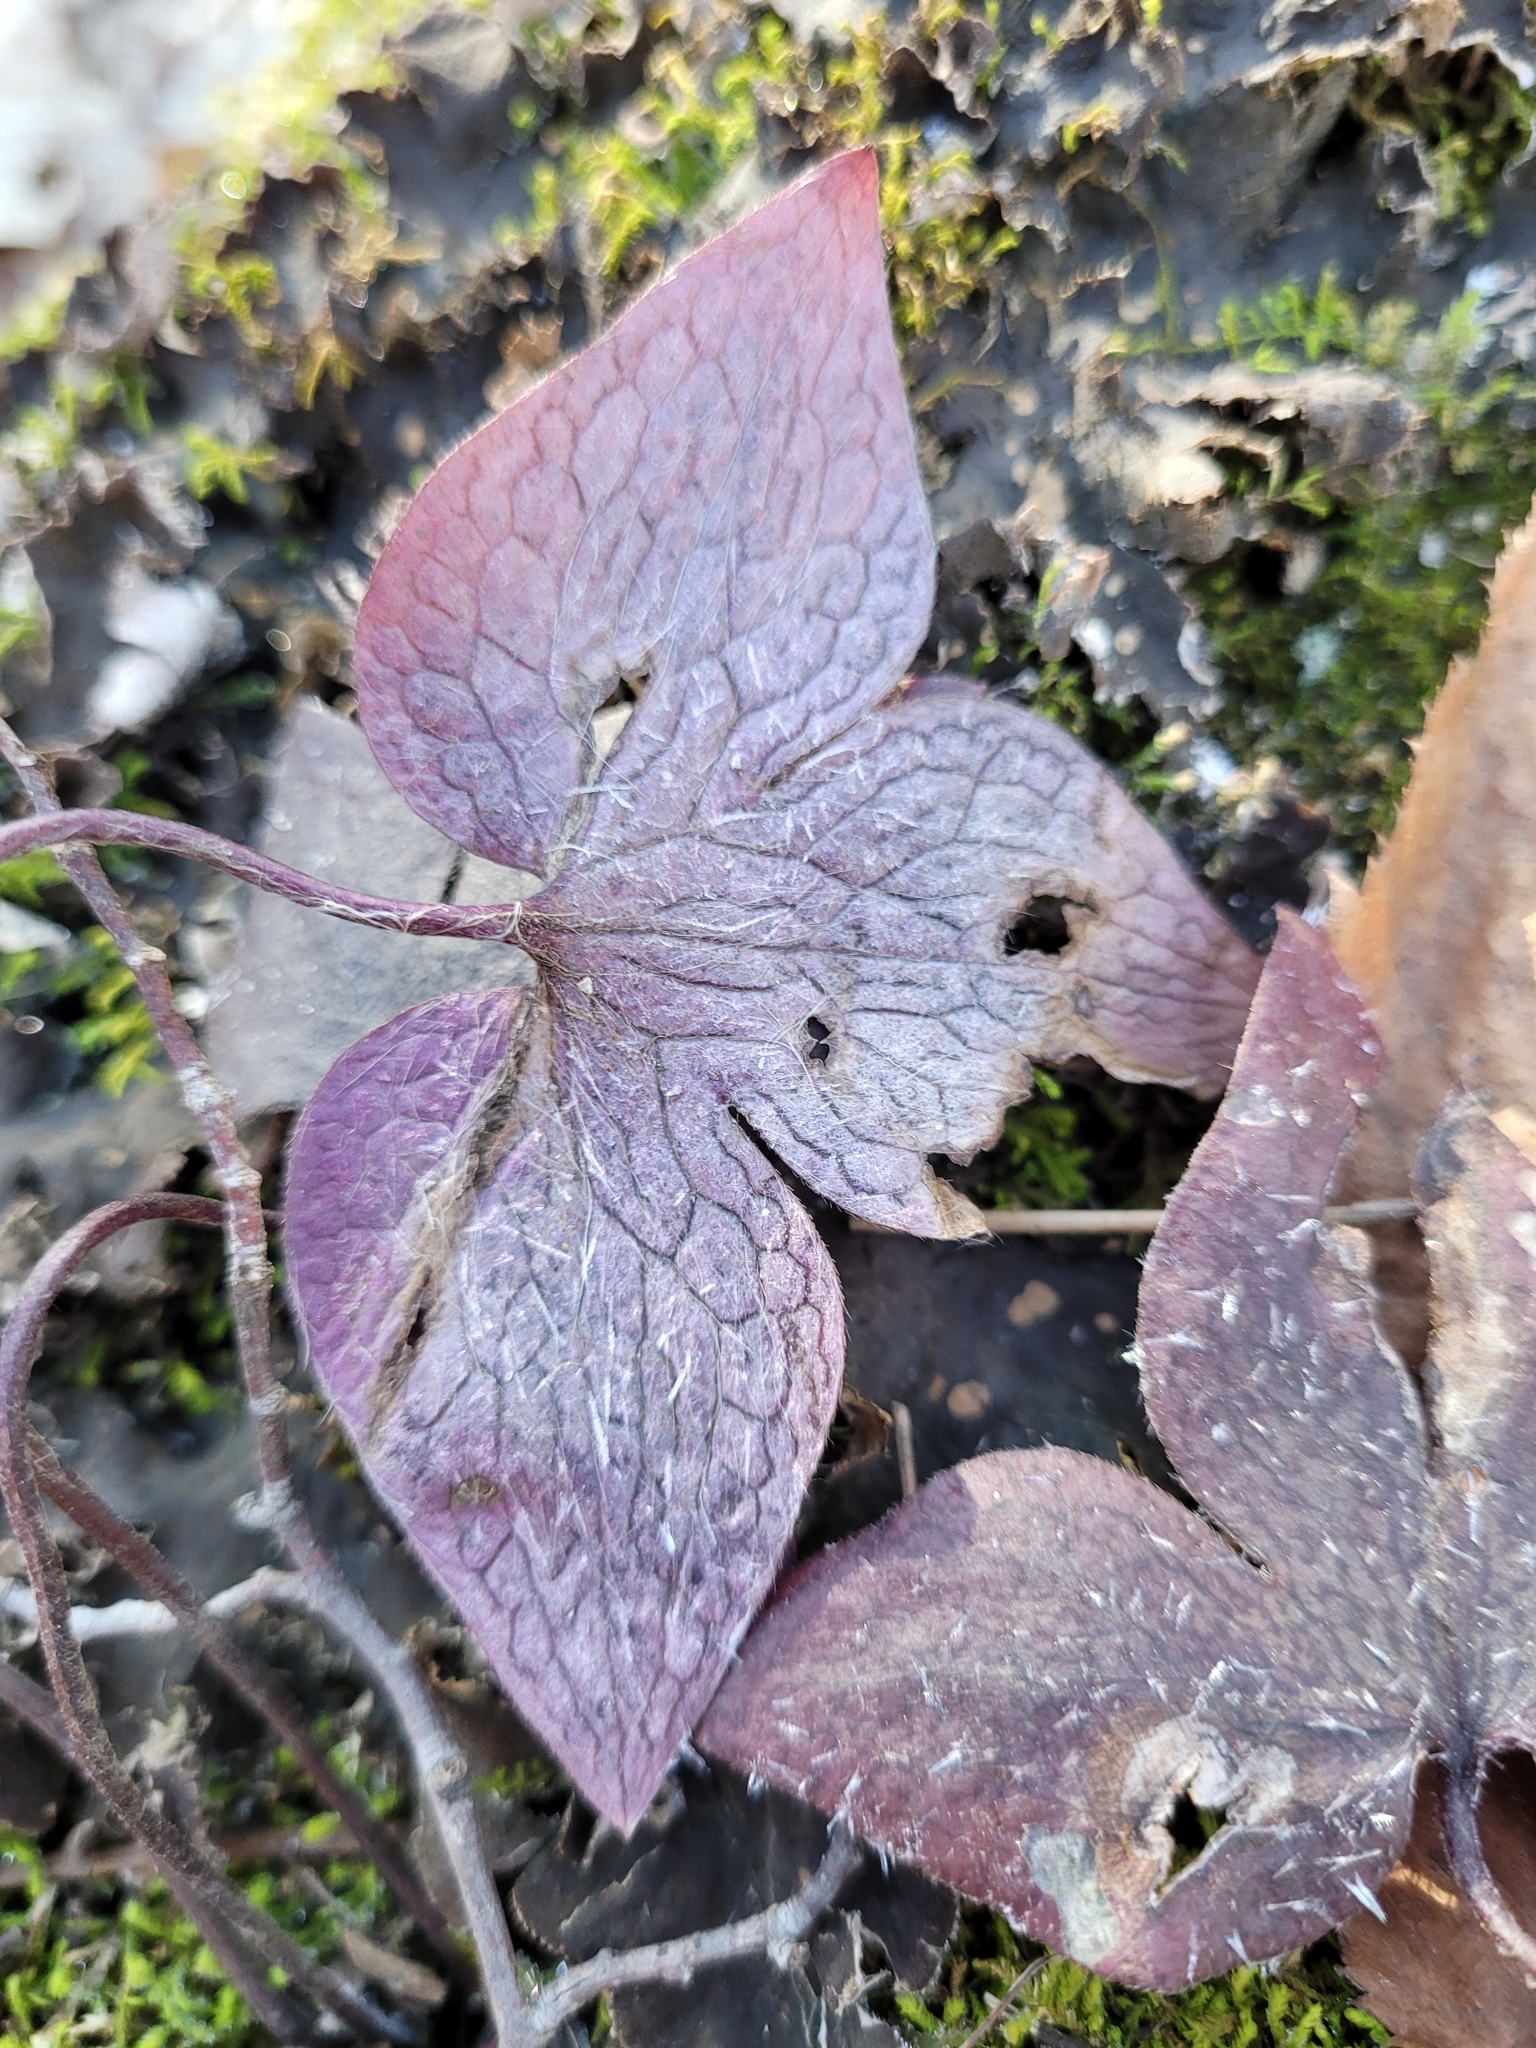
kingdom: Plantae
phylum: Tracheophyta
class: Magnoliopsida
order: Ranunculales
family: Ranunculaceae
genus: Hepatica
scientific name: Hepatica acutiloba
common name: Sharp-lobed hepatica
